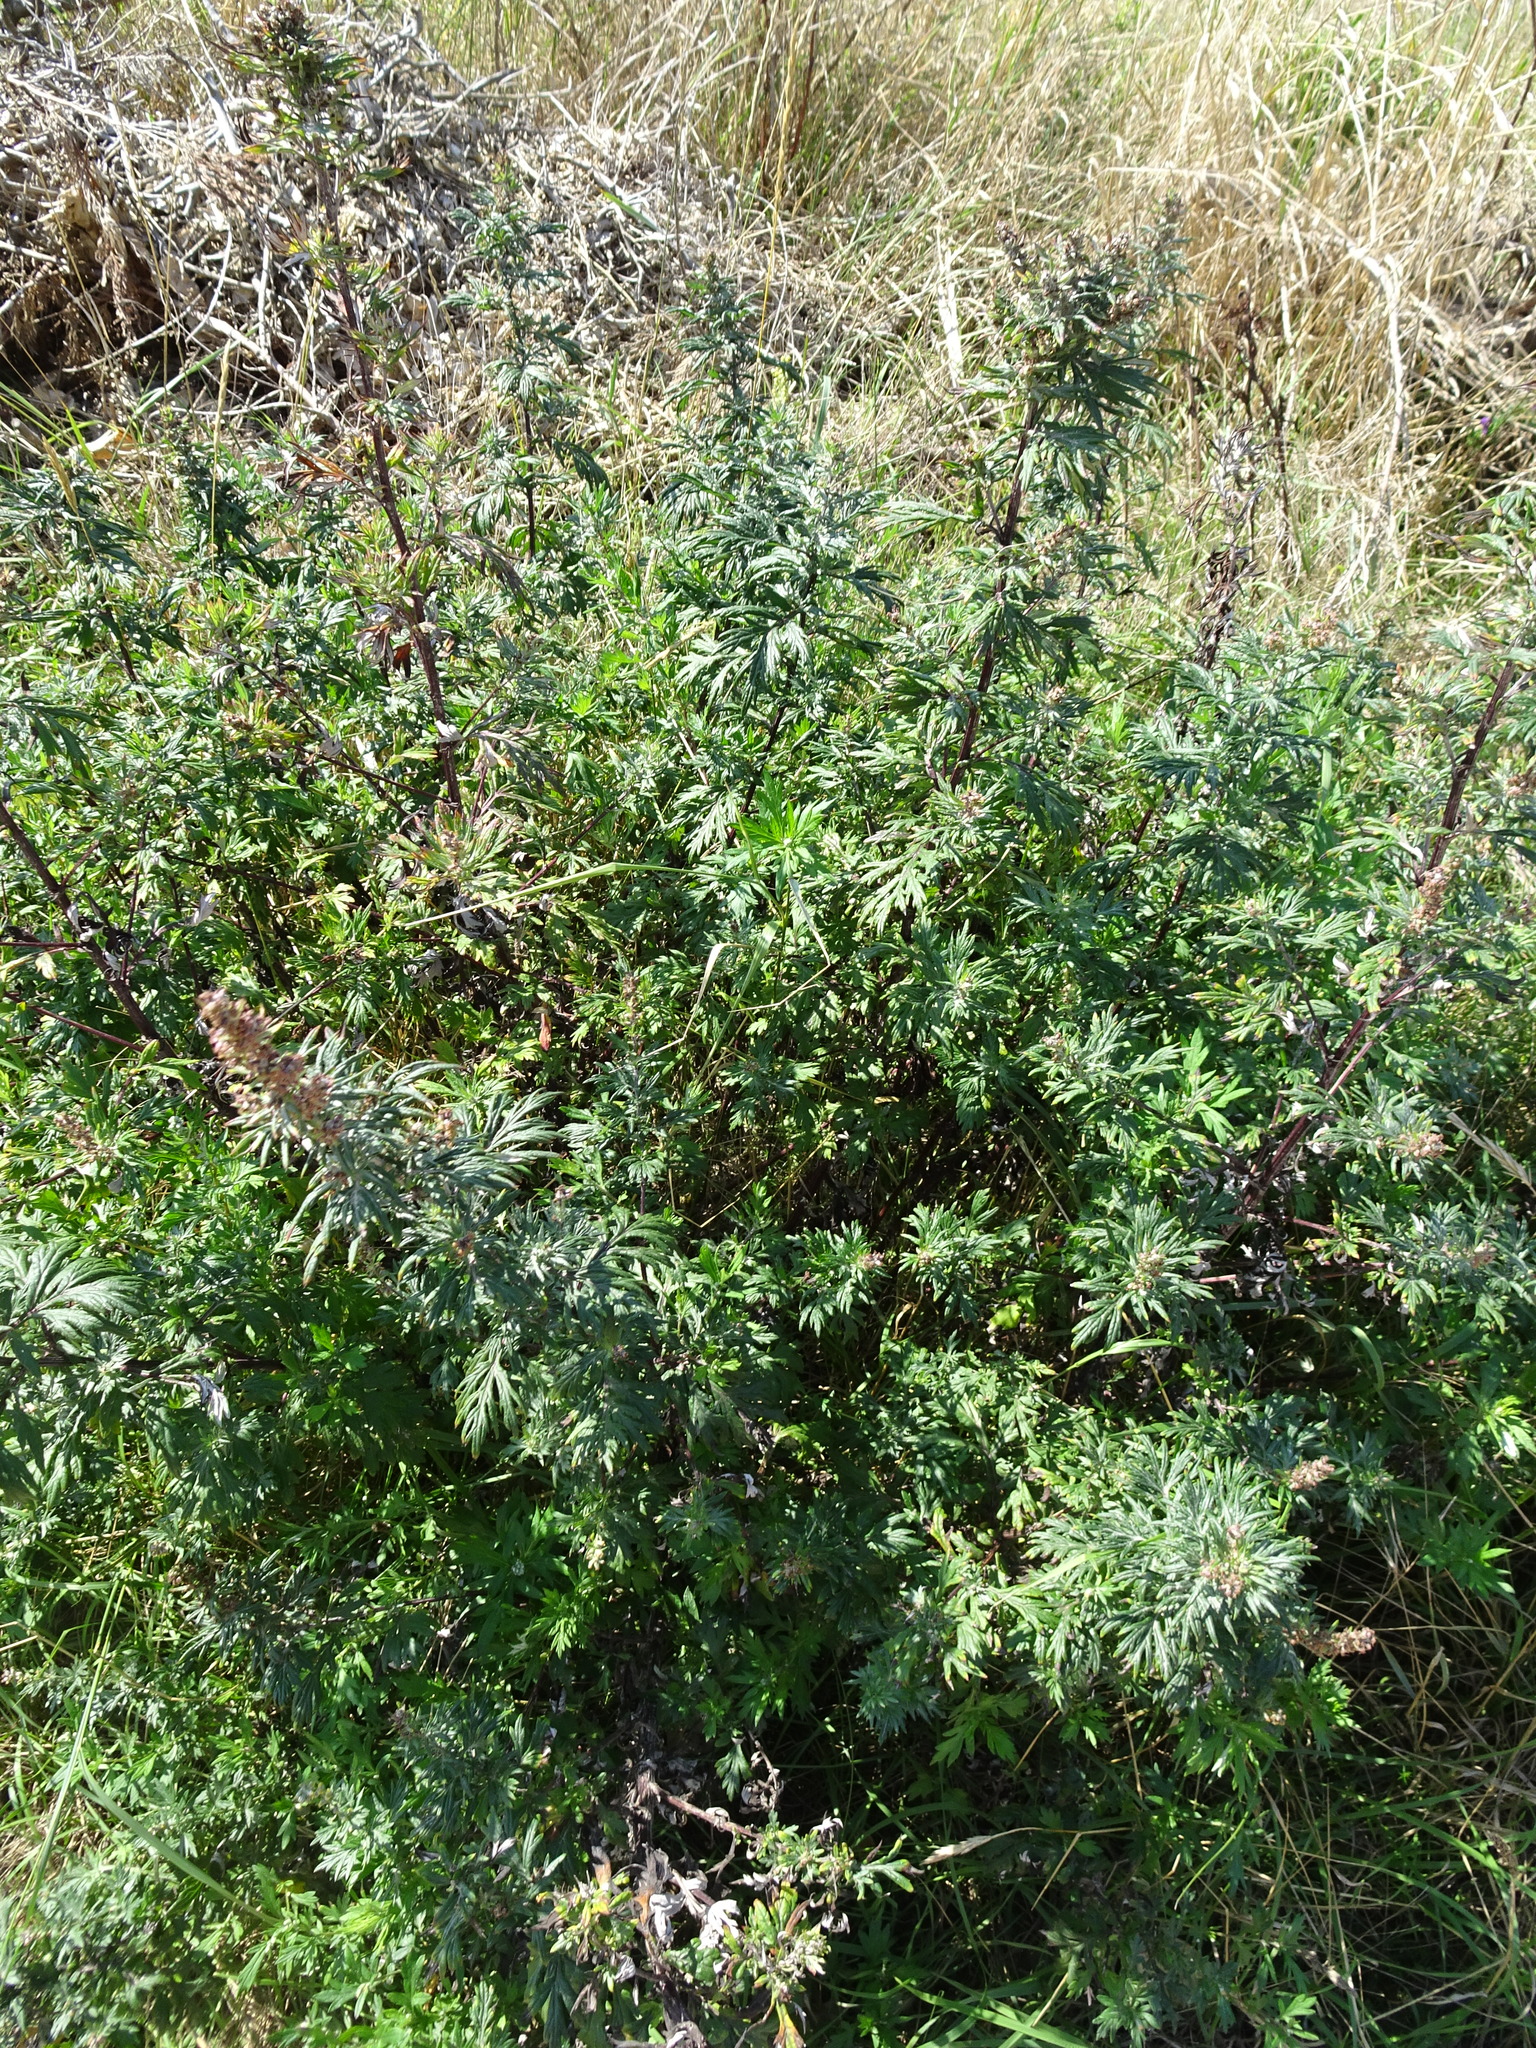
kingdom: Plantae
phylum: Tracheophyta
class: Magnoliopsida
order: Asterales
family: Asteraceae
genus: Artemisia
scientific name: Artemisia vulgaris
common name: Mugwort
